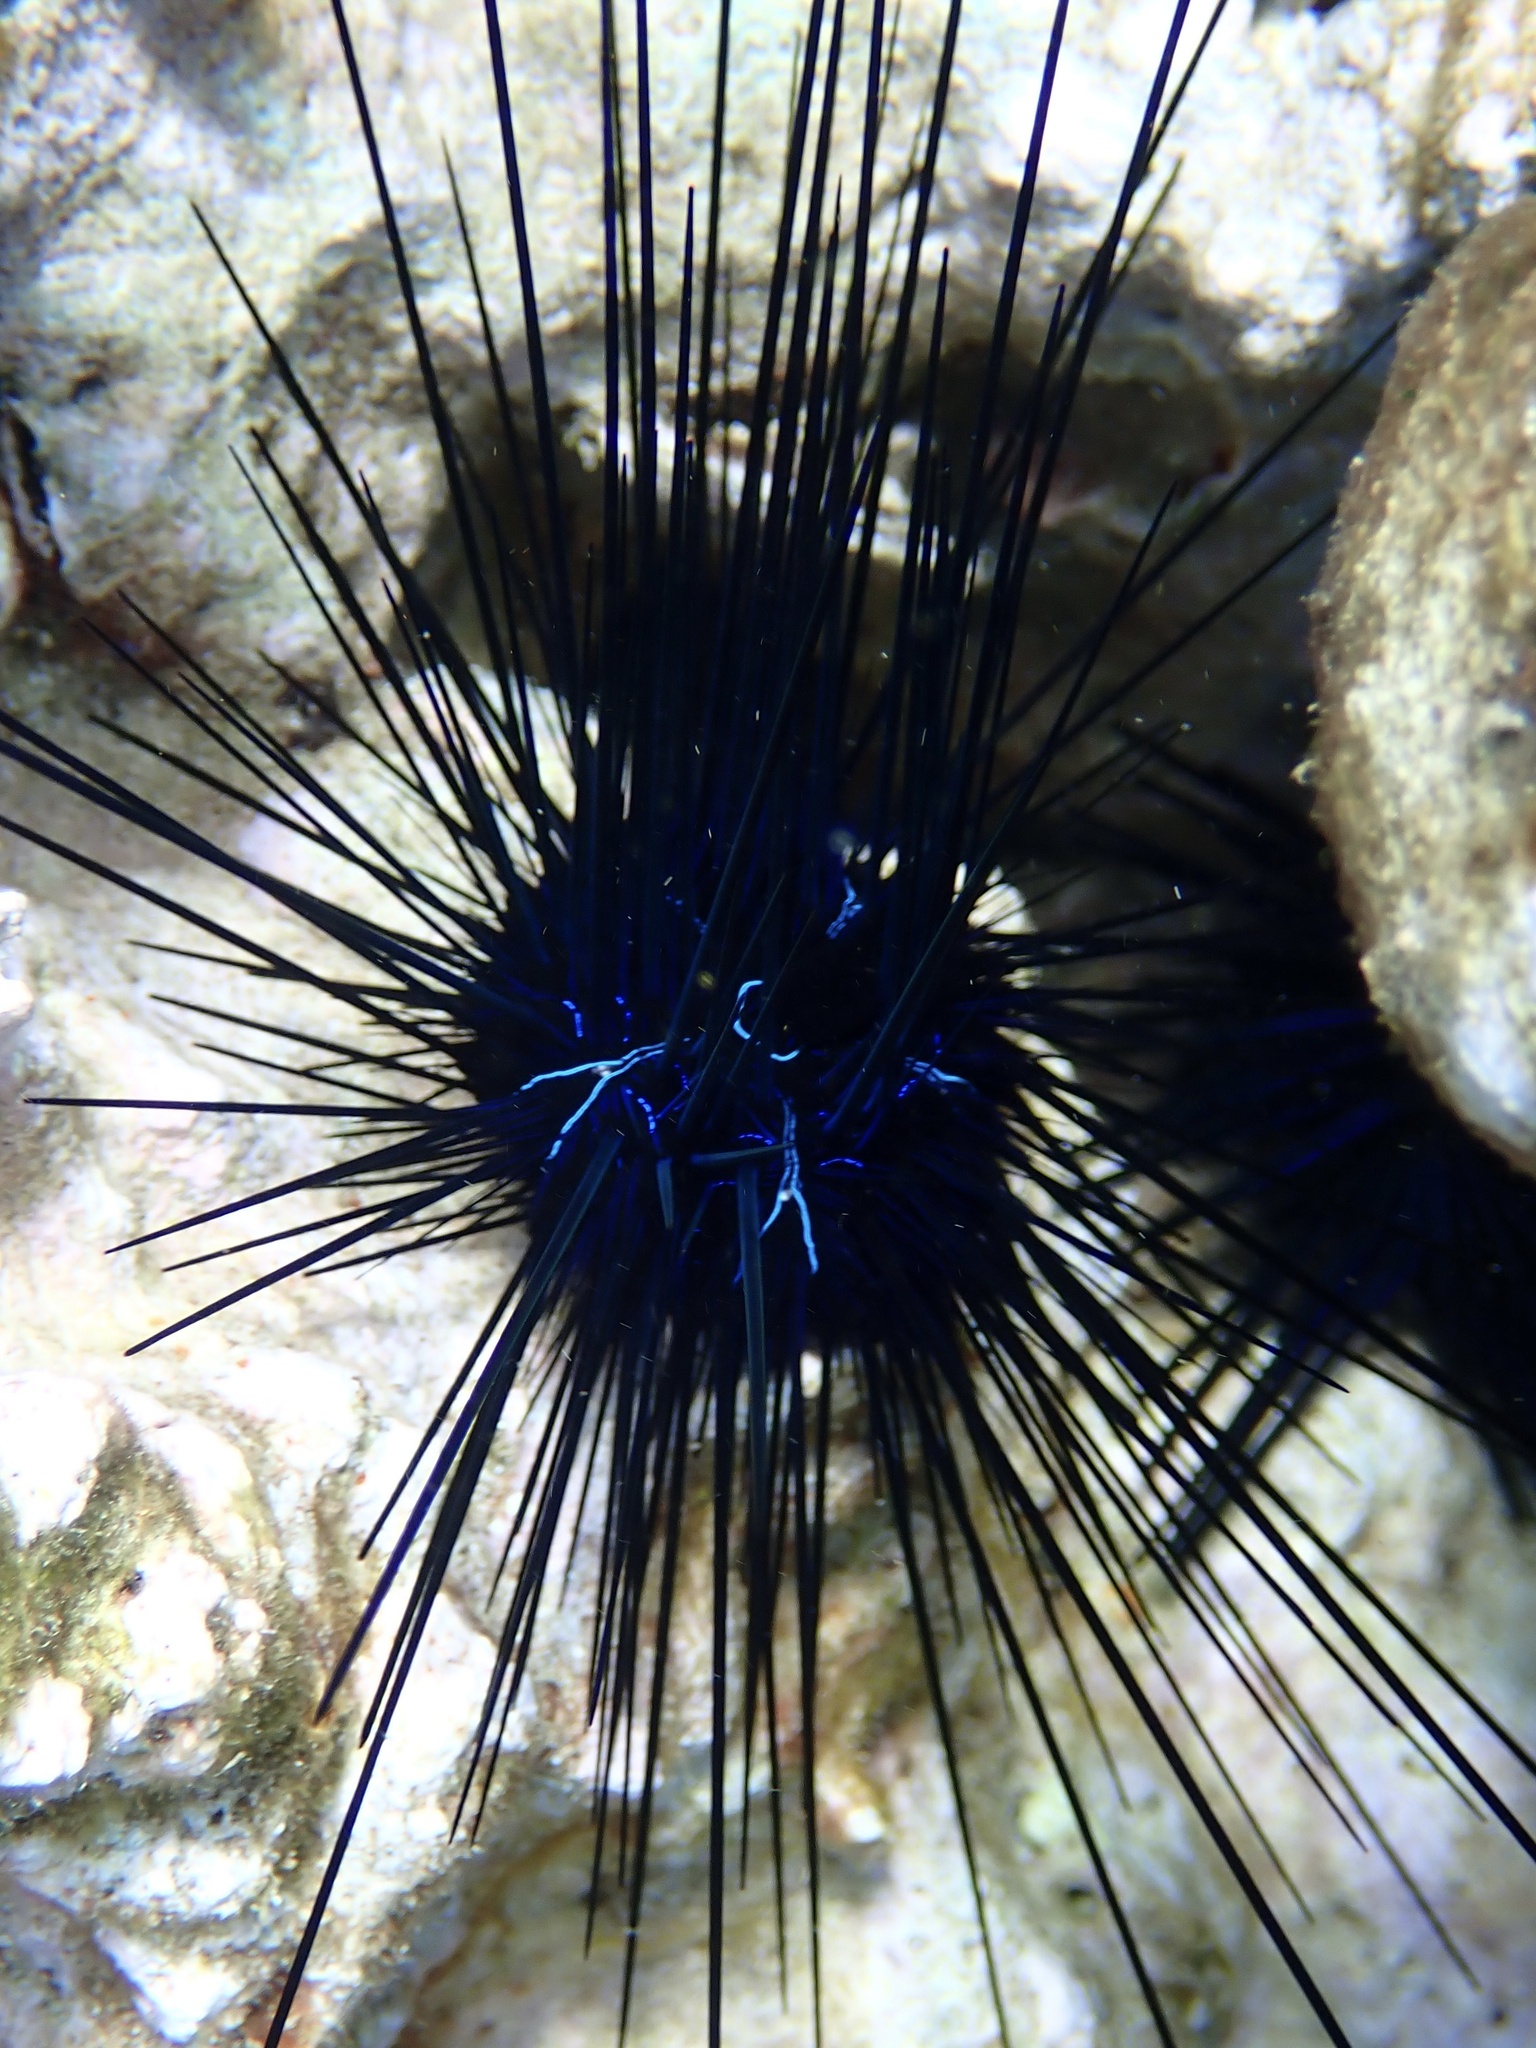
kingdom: Animalia
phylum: Echinodermata
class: Echinoidea
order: Diadematoida
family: Diadematidae
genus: Diadema
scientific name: Diadema savignyi
